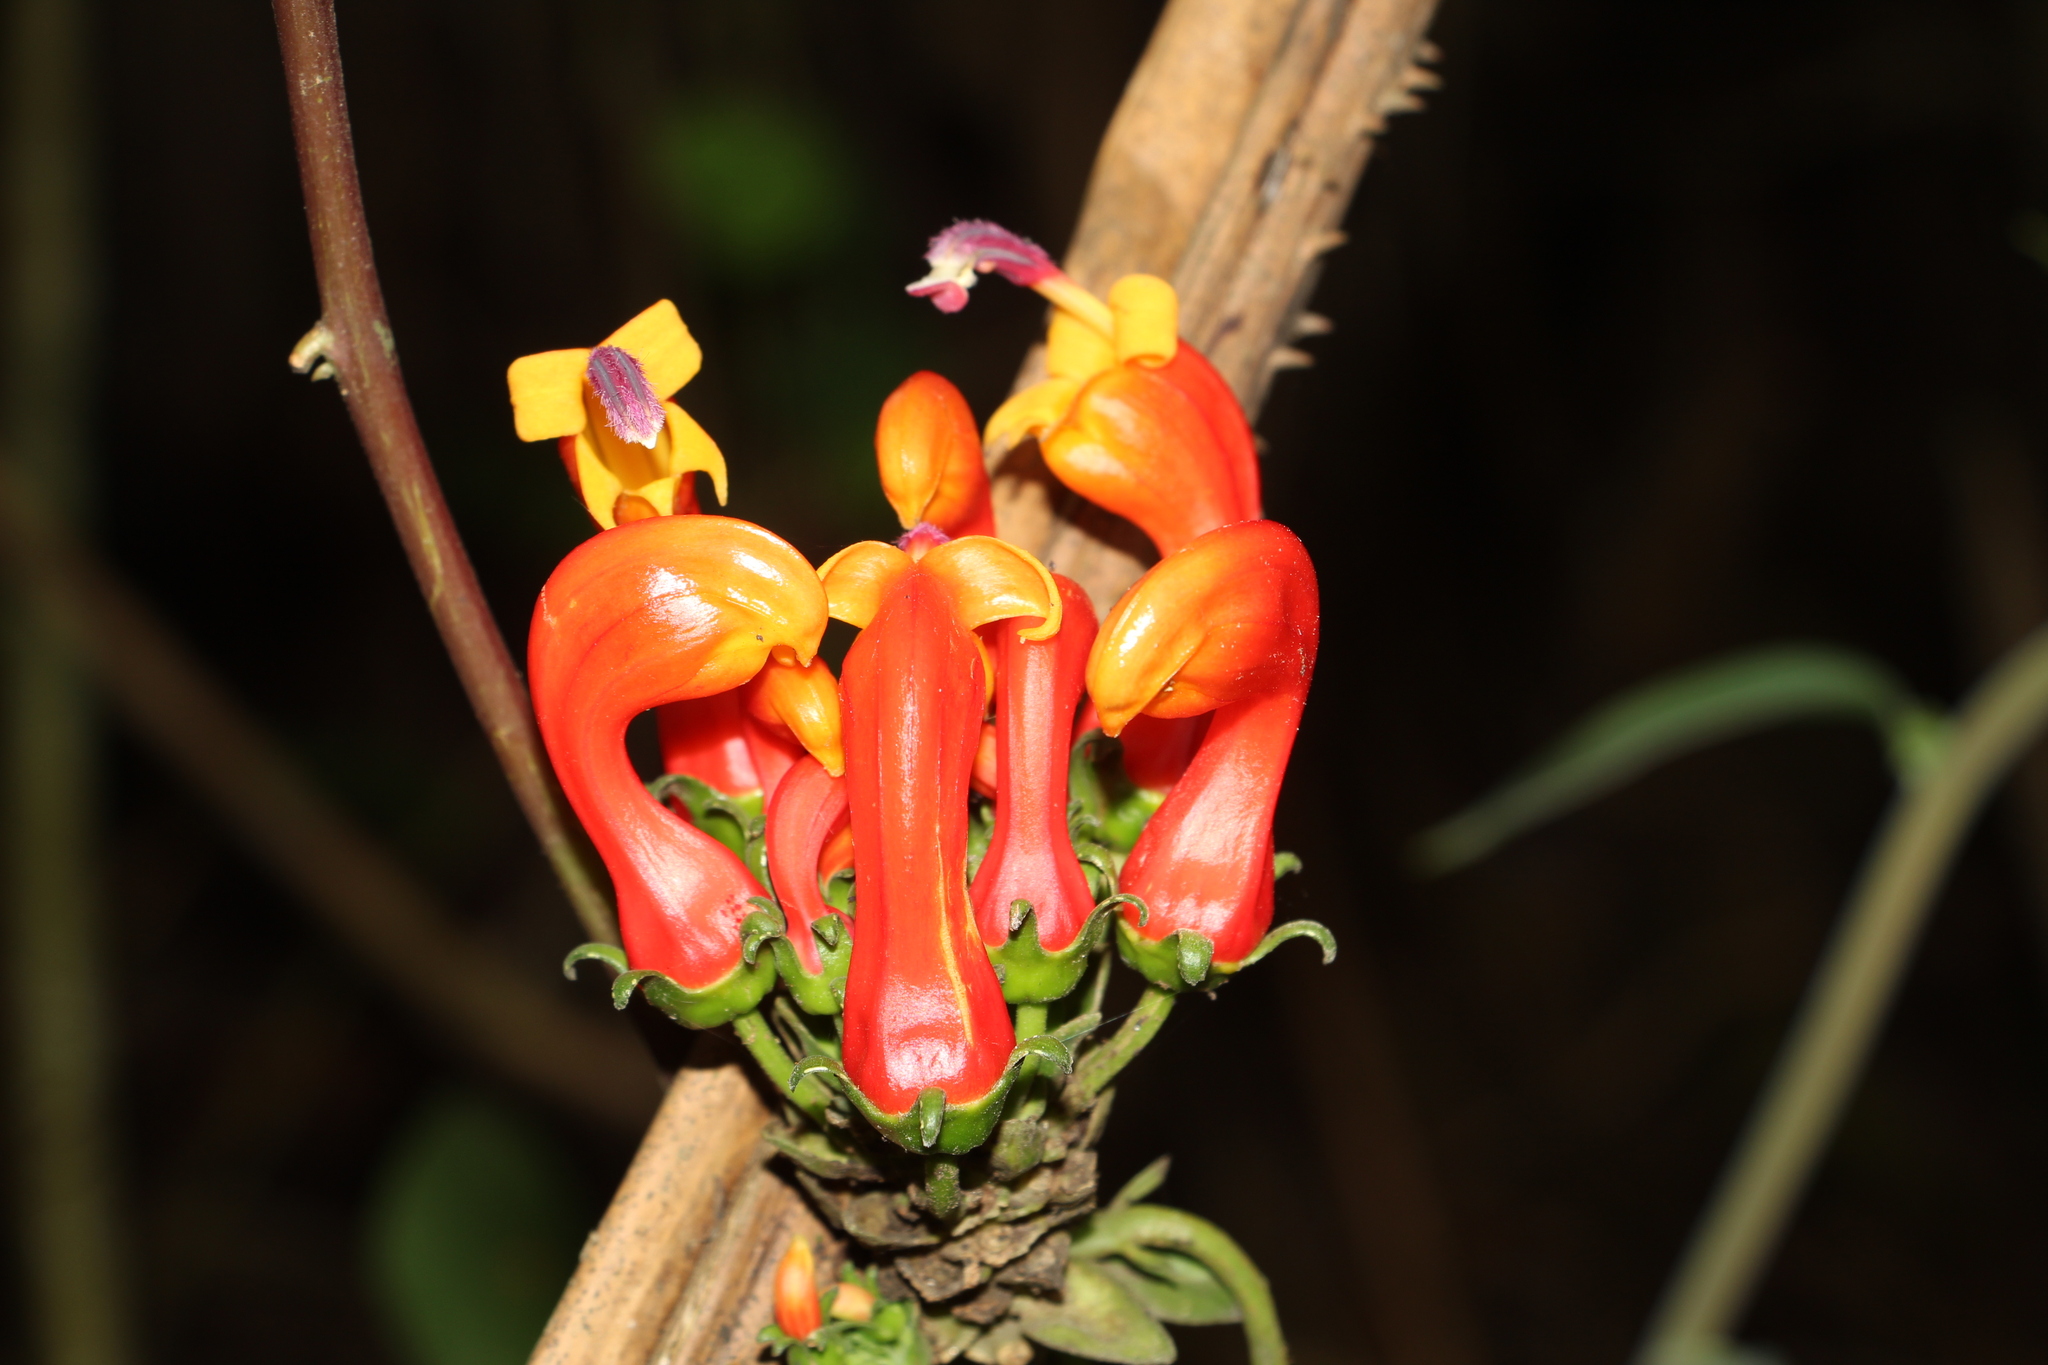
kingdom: Plantae
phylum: Tracheophyta
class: Magnoliopsida
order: Asterales
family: Campanulaceae
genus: Centropogon
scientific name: Centropogon granulosus
